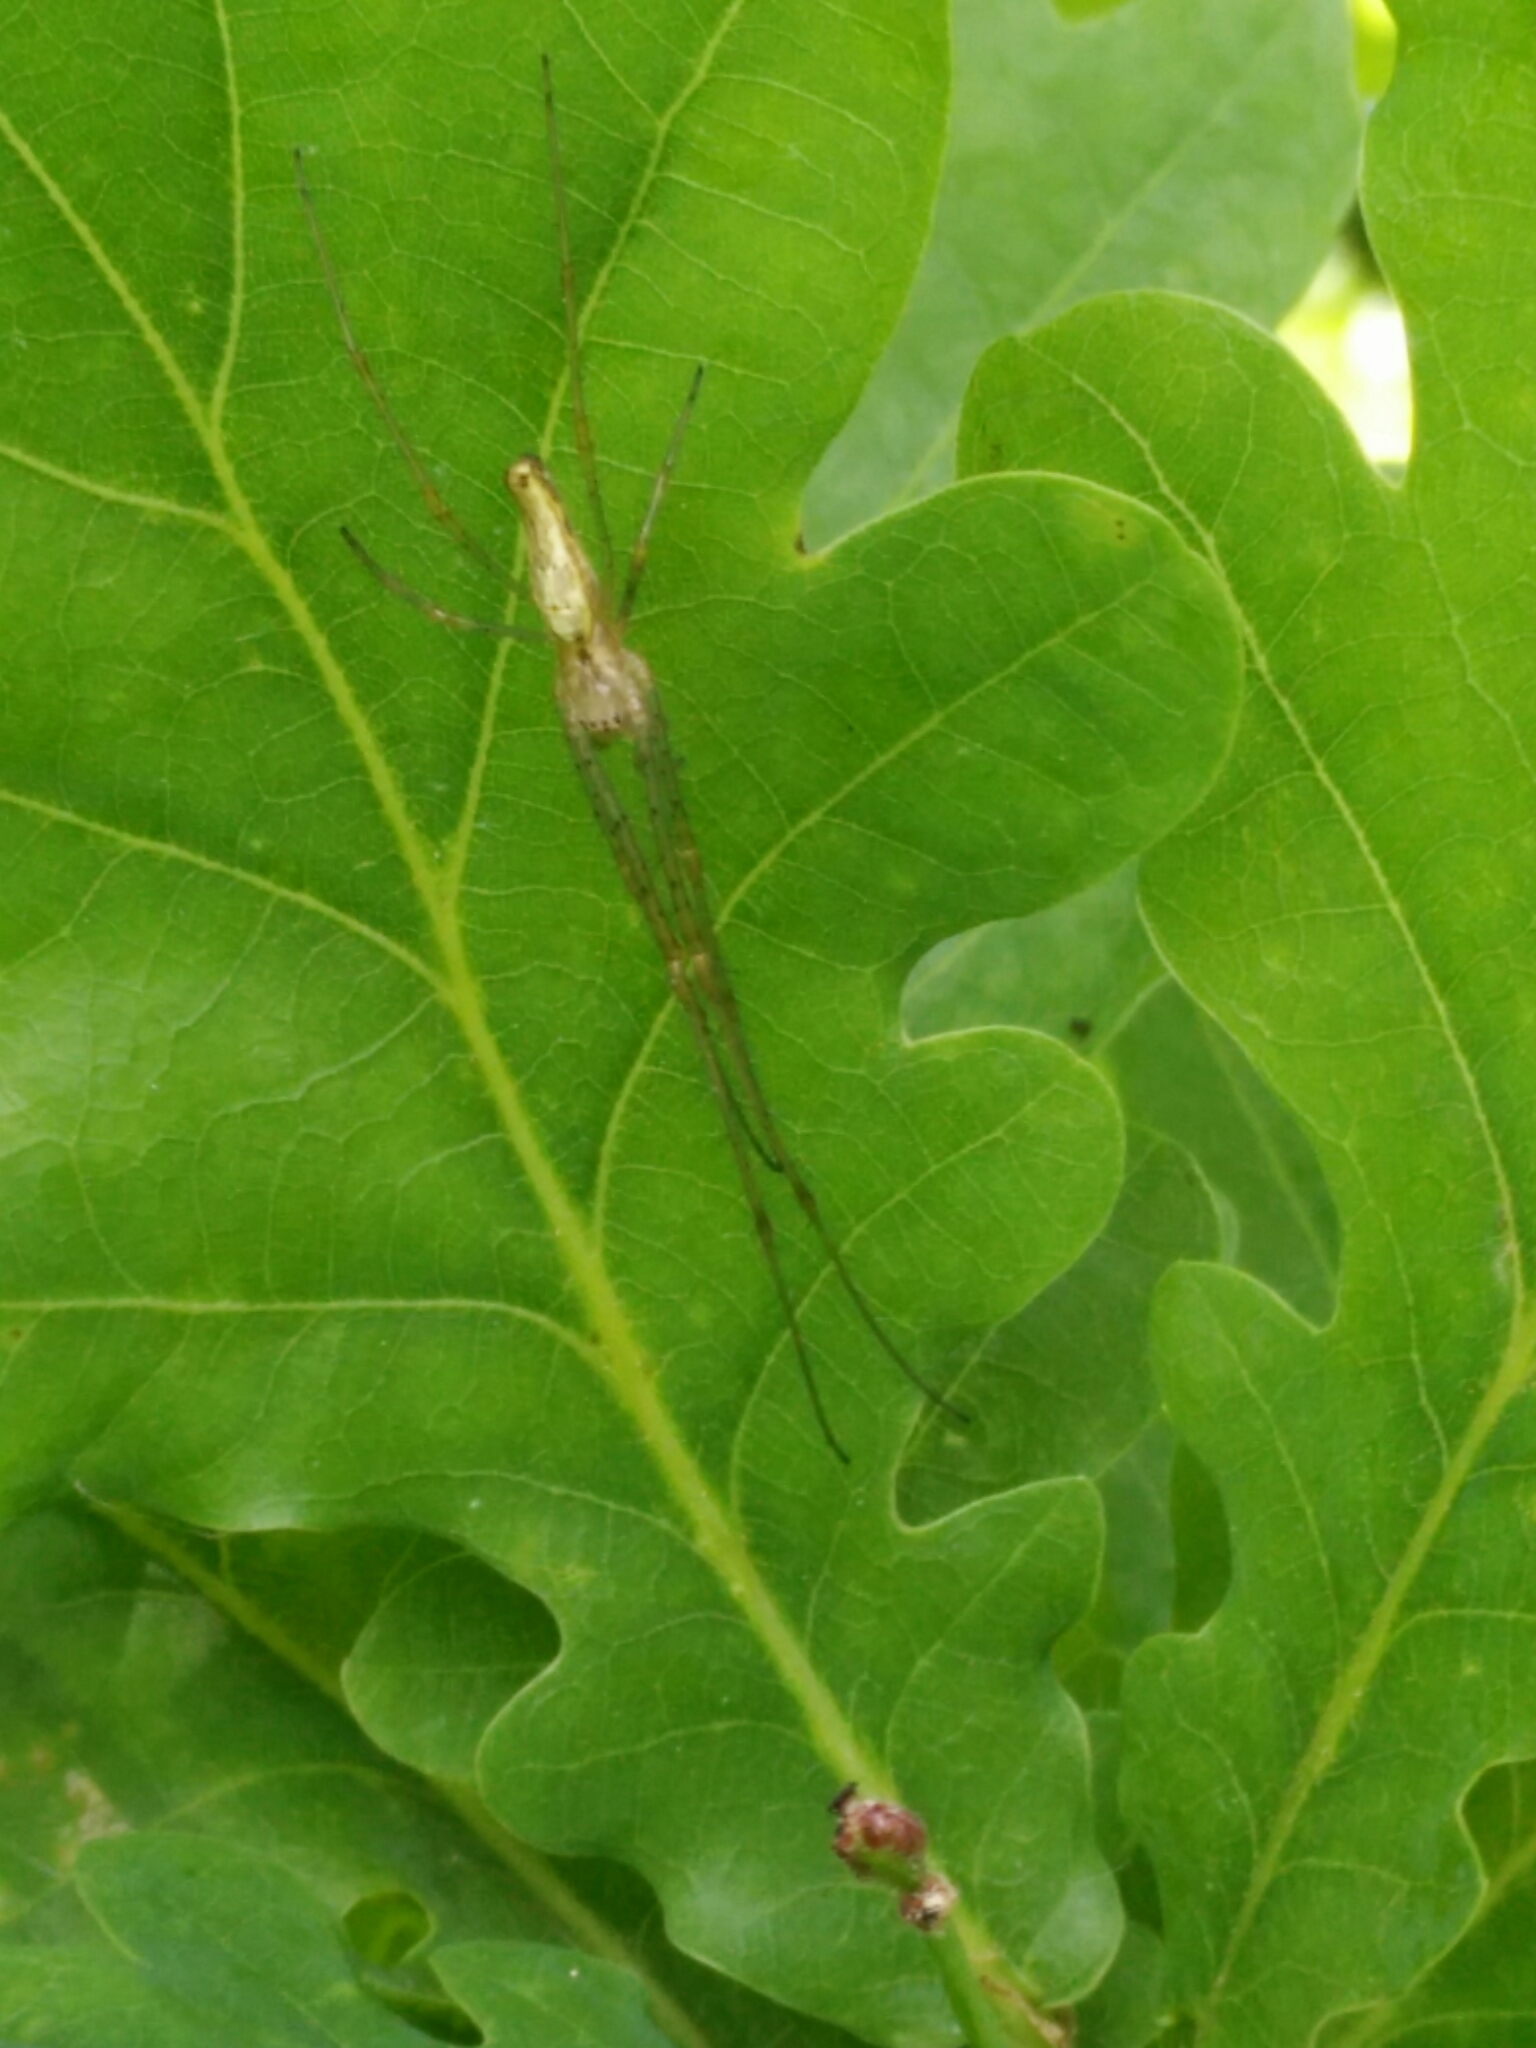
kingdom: Animalia
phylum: Arthropoda
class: Arachnida
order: Araneae
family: Tetragnathidae
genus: Tetragnatha
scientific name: Tetragnatha extensa
